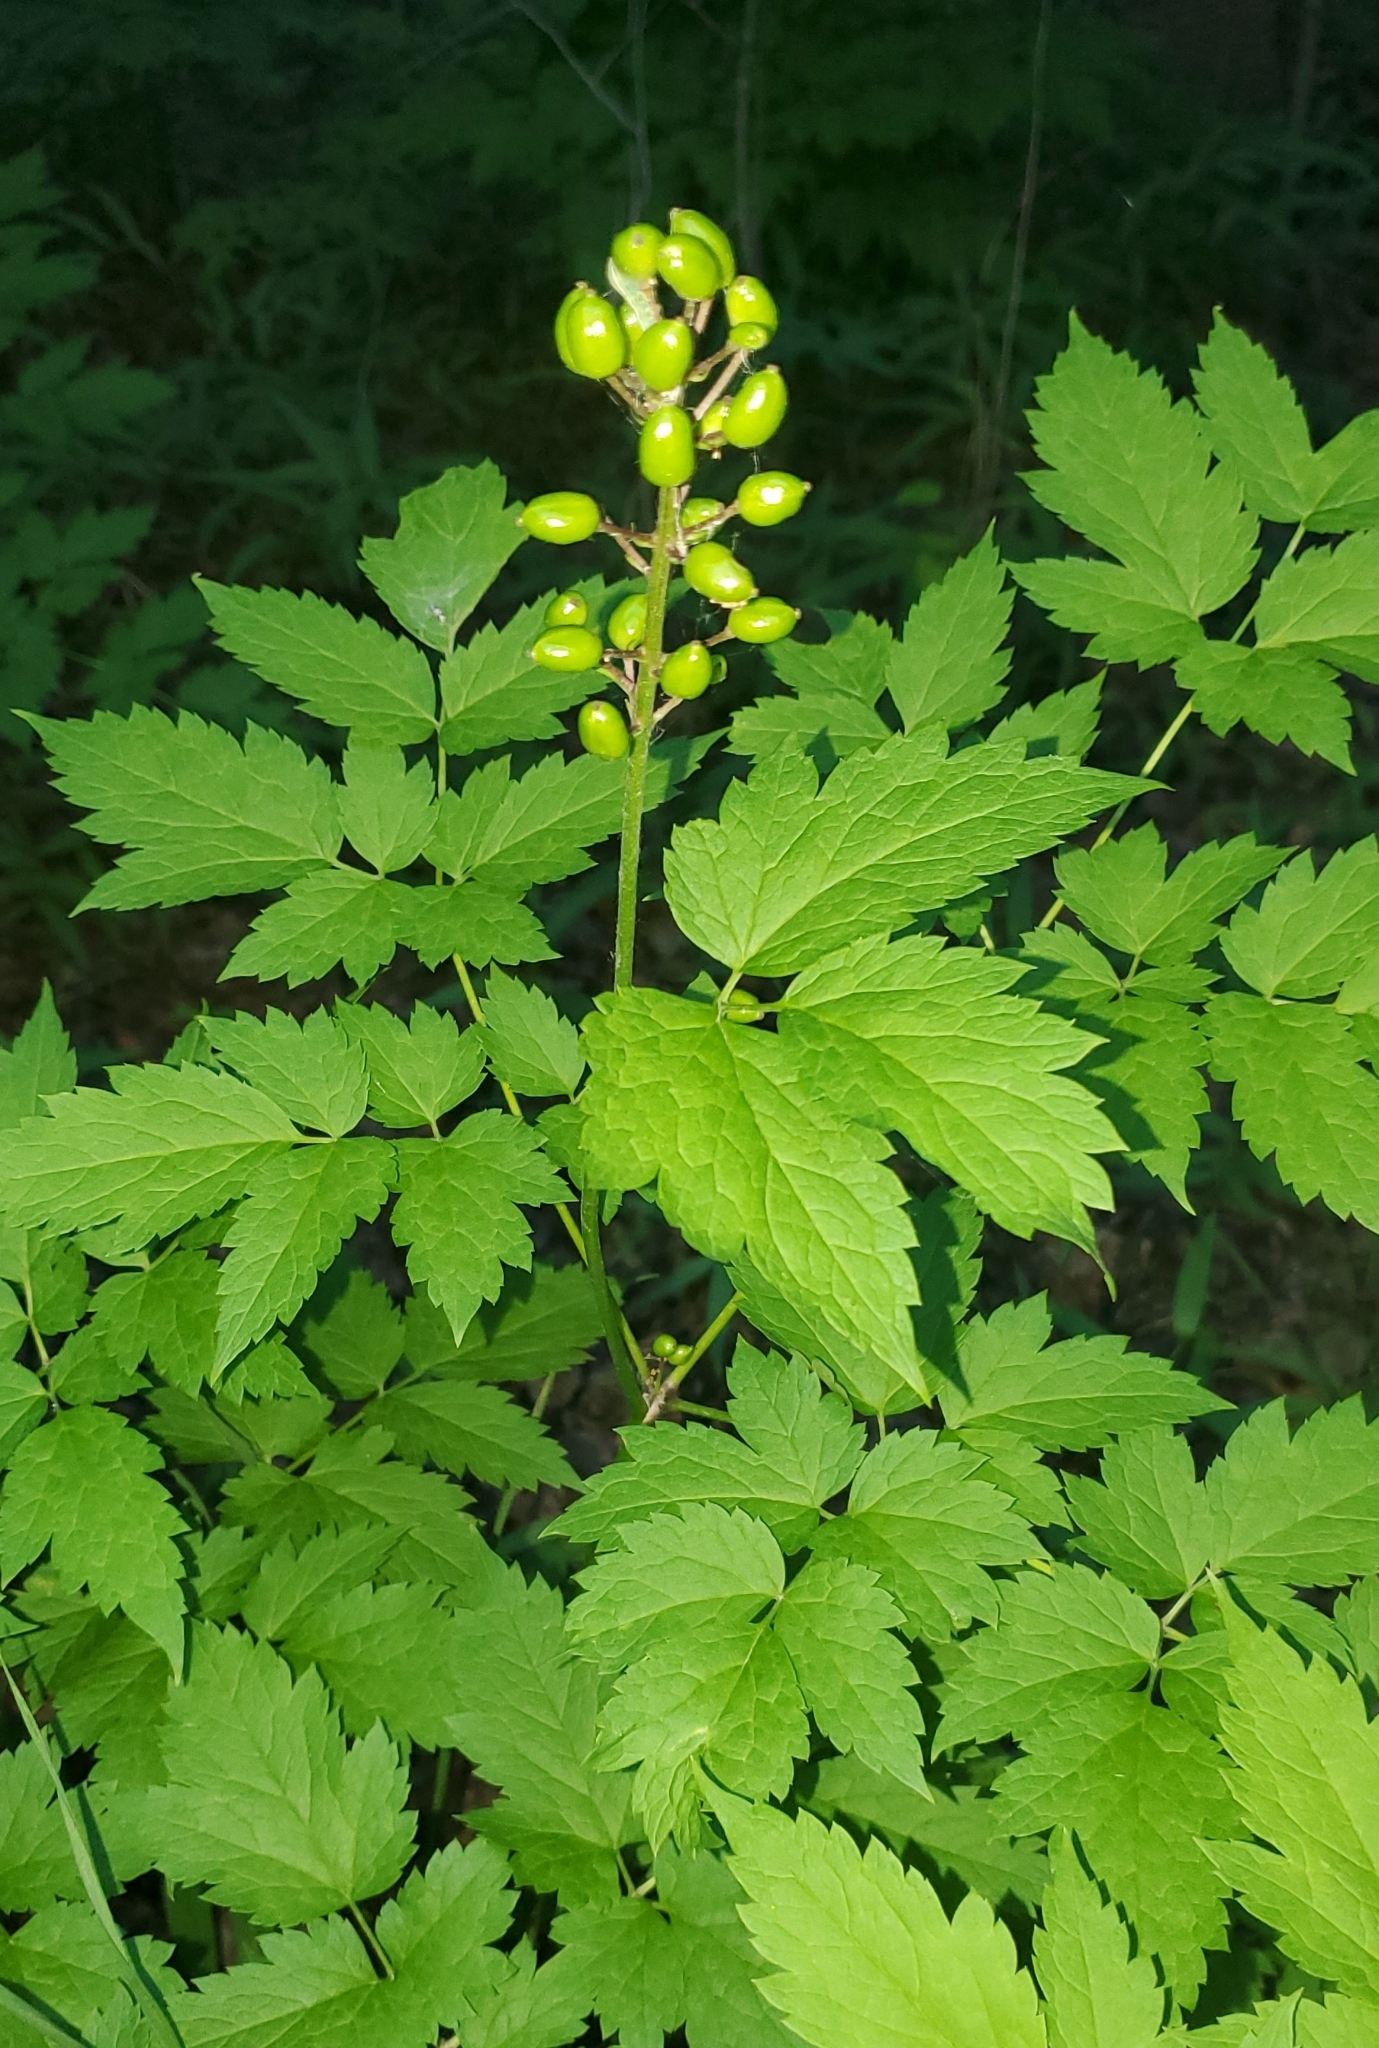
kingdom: Plantae
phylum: Tracheophyta
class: Magnoliopsida
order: Ranunculales
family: Ranunculaceae
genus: Actaea
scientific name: Actaea rubra
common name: Red baneberry
